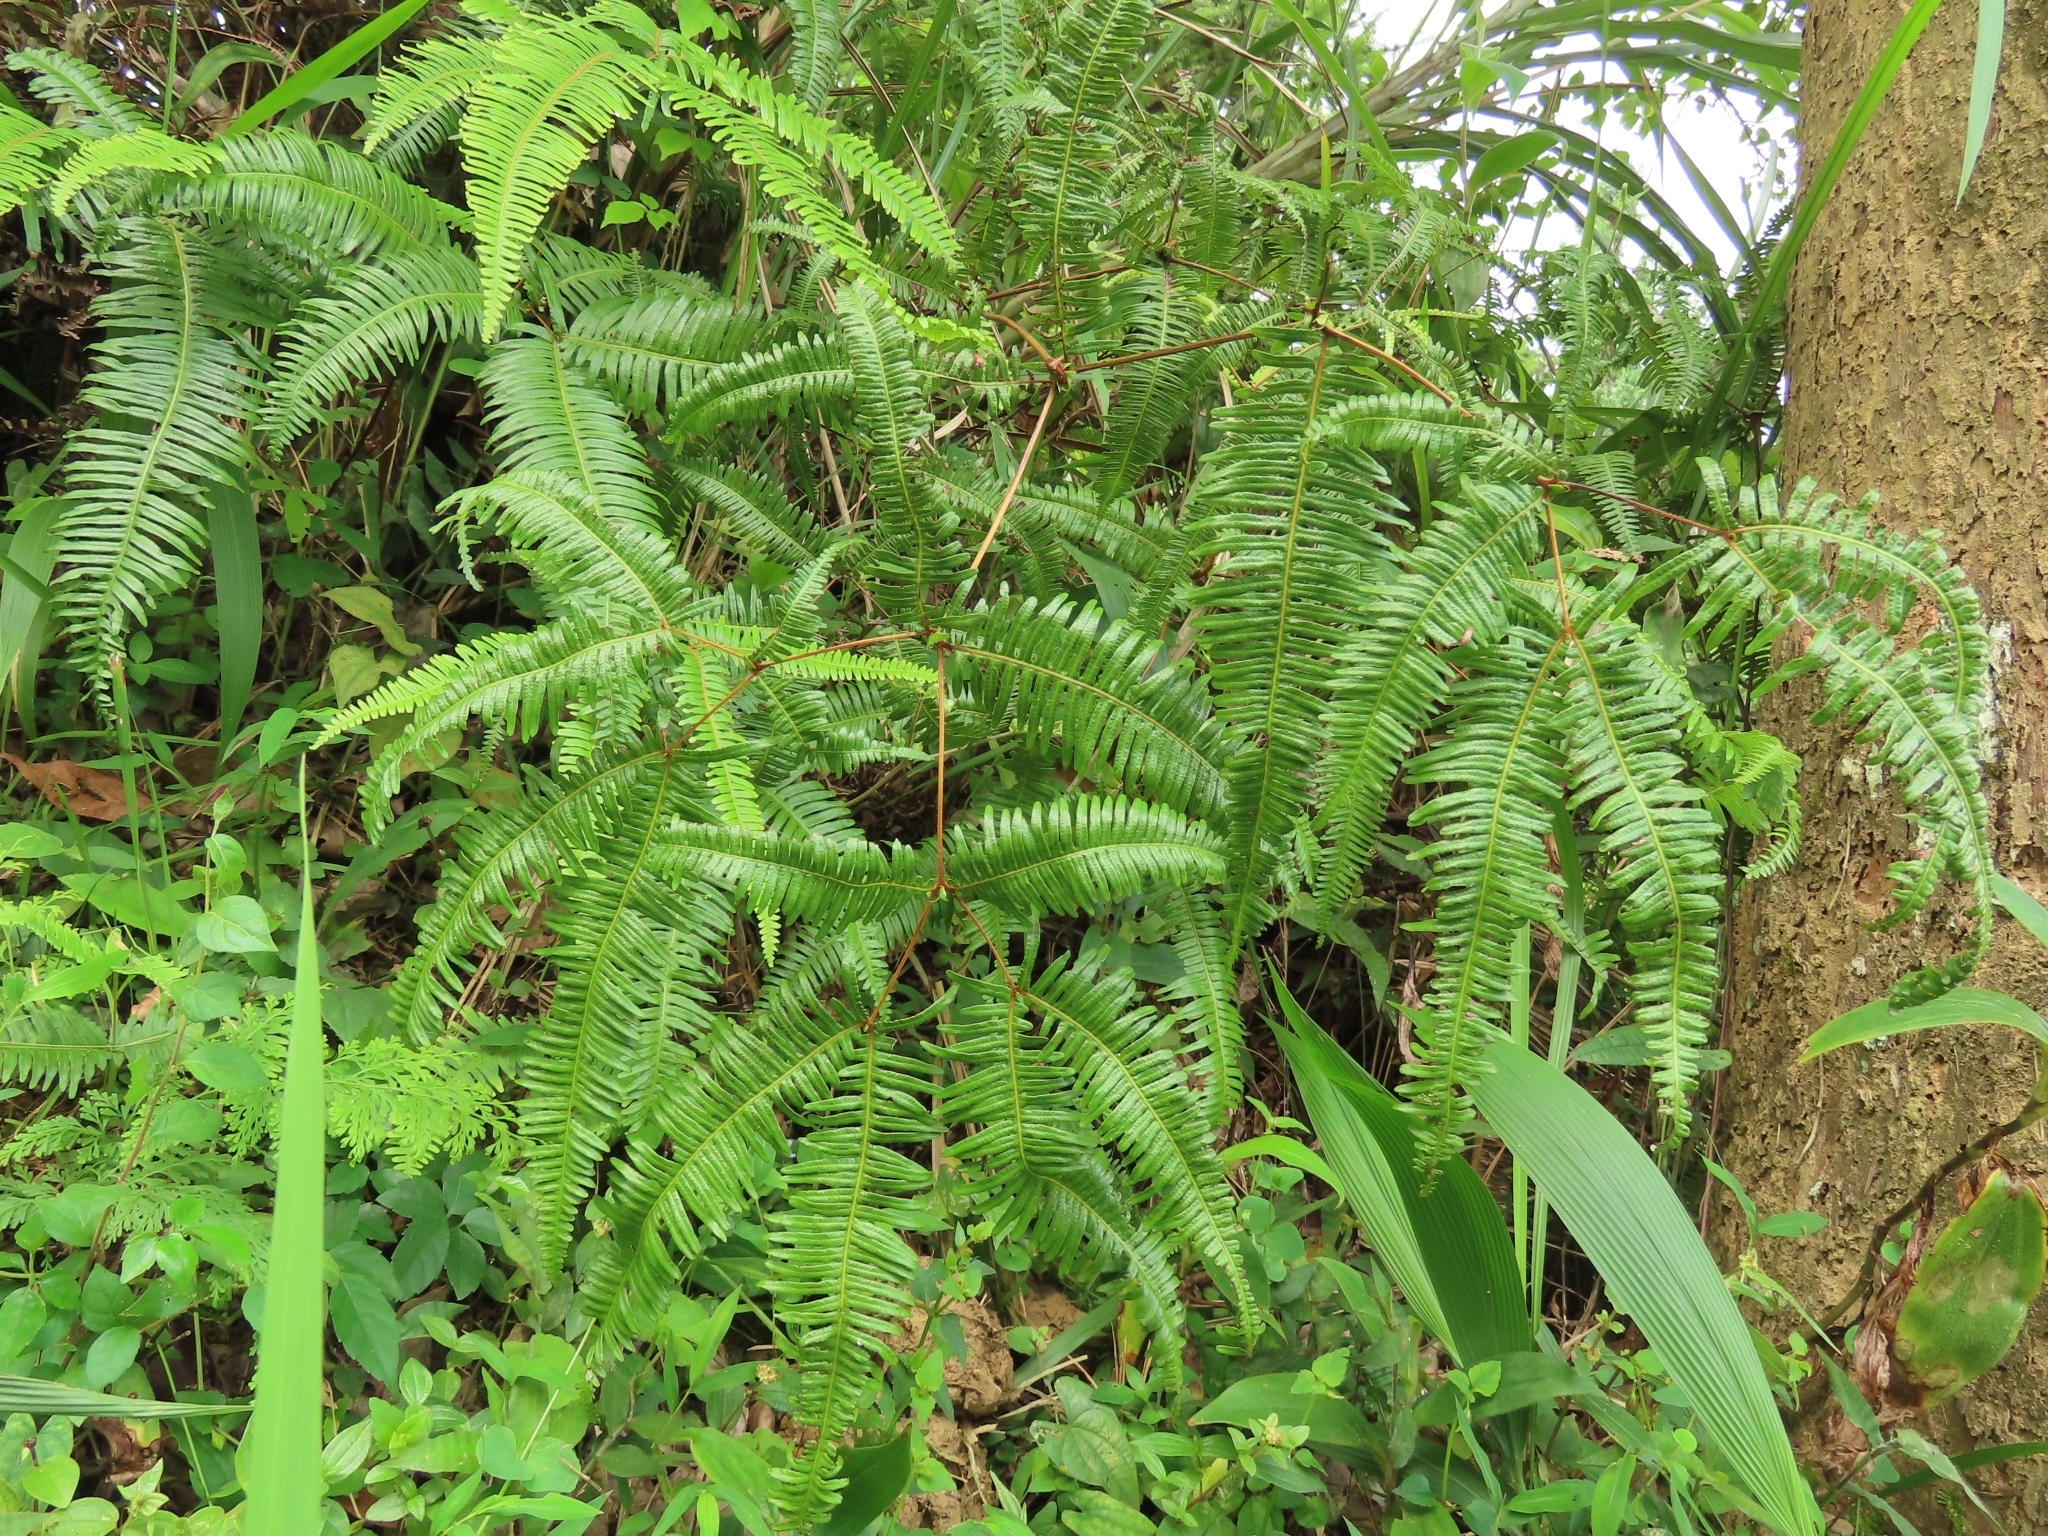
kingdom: Plantae
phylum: Tracheophyta
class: Polypodiopsida
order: Gleicheniales
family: Gleicheniaceae
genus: Dicranopteris
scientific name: Dicranopteris linearis
